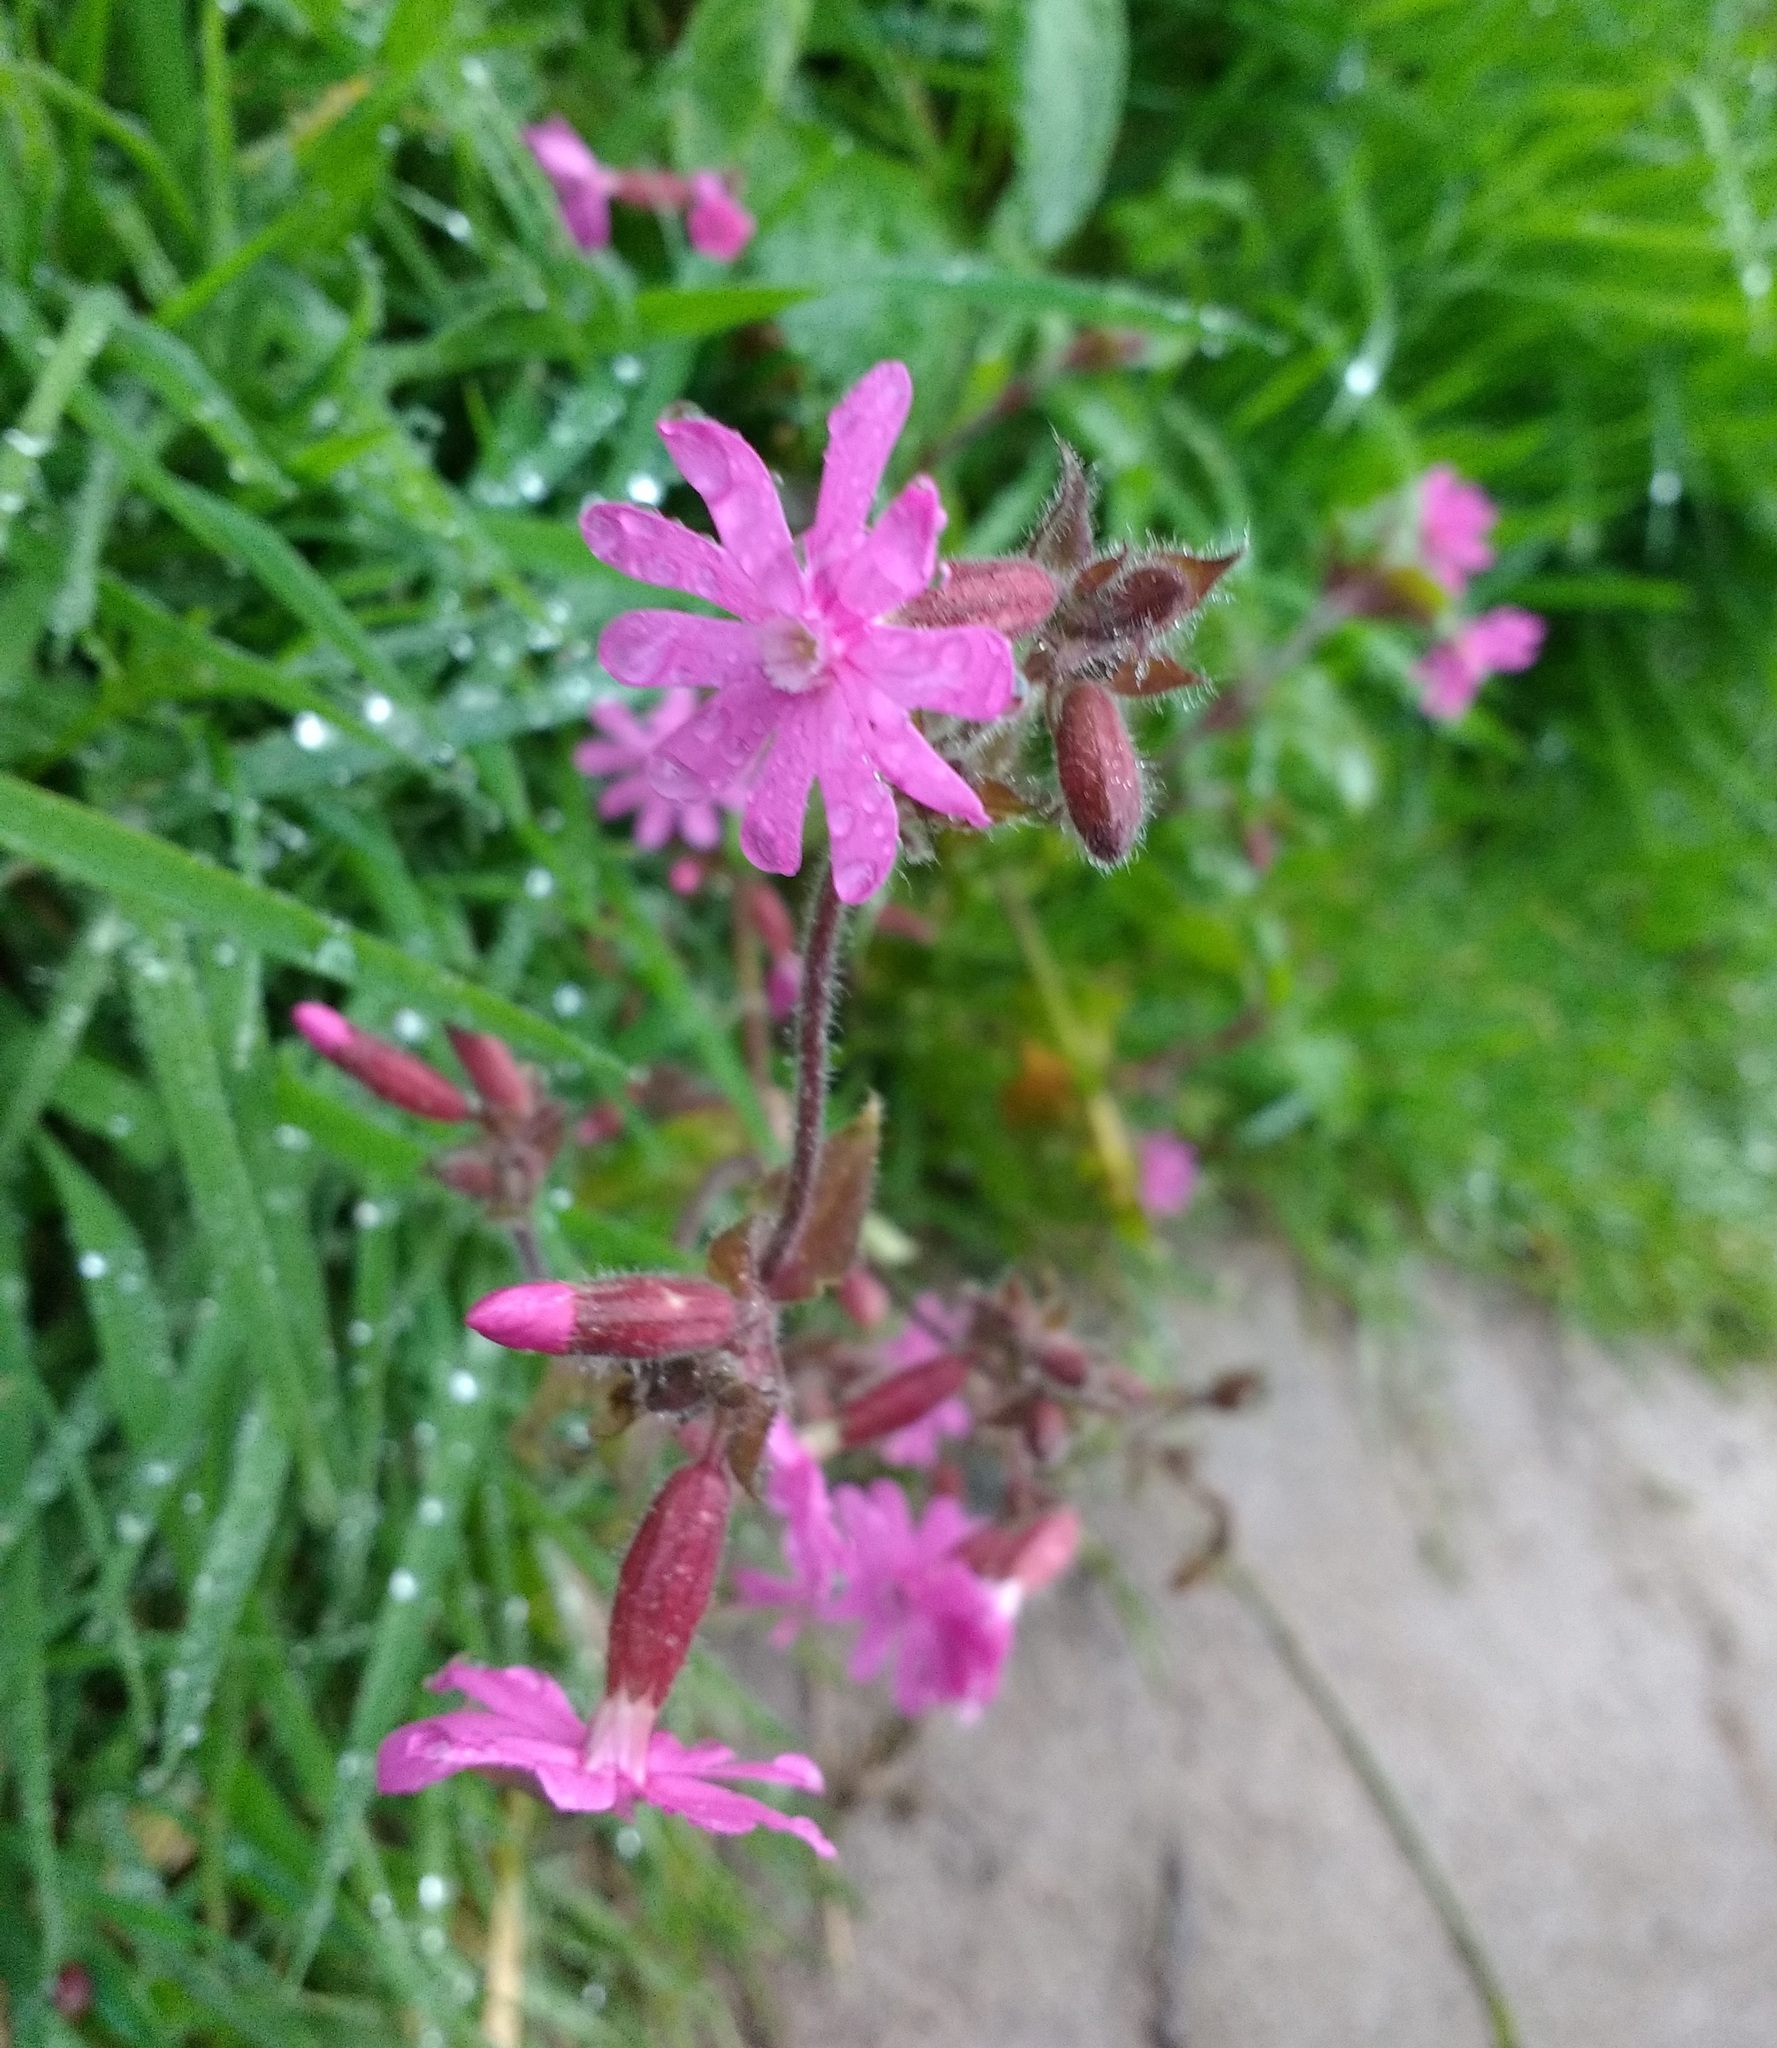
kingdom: Plantae
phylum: Tracheophyta
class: Magnoliopsida
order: Caryophyllales
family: Caryophyllaceae
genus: Silene
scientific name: Silene dioica
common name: Red campion
